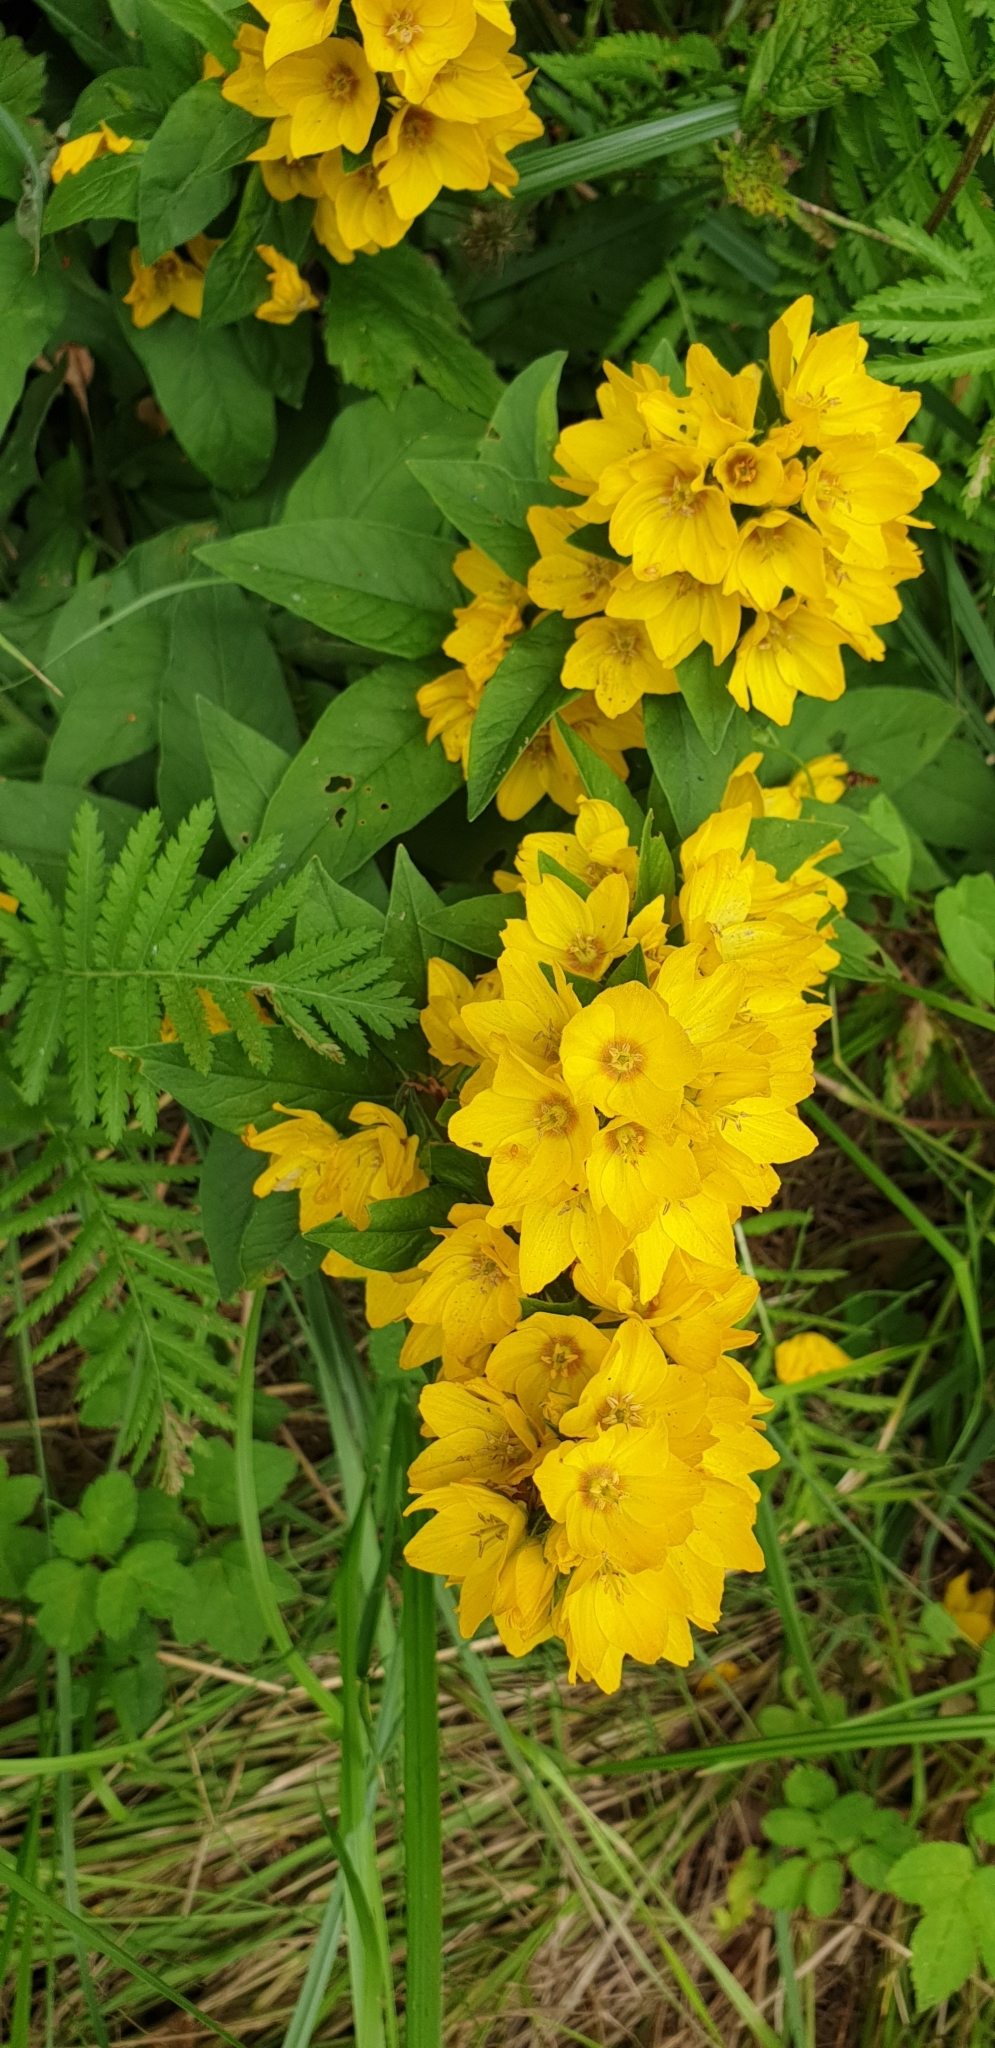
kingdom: Plantae
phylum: Tracheophyta
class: Magnoliopsida
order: Ericales
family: Primulaceae
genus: Lysimachia
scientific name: Lysimachia punctata
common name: Dotted loosestrife
